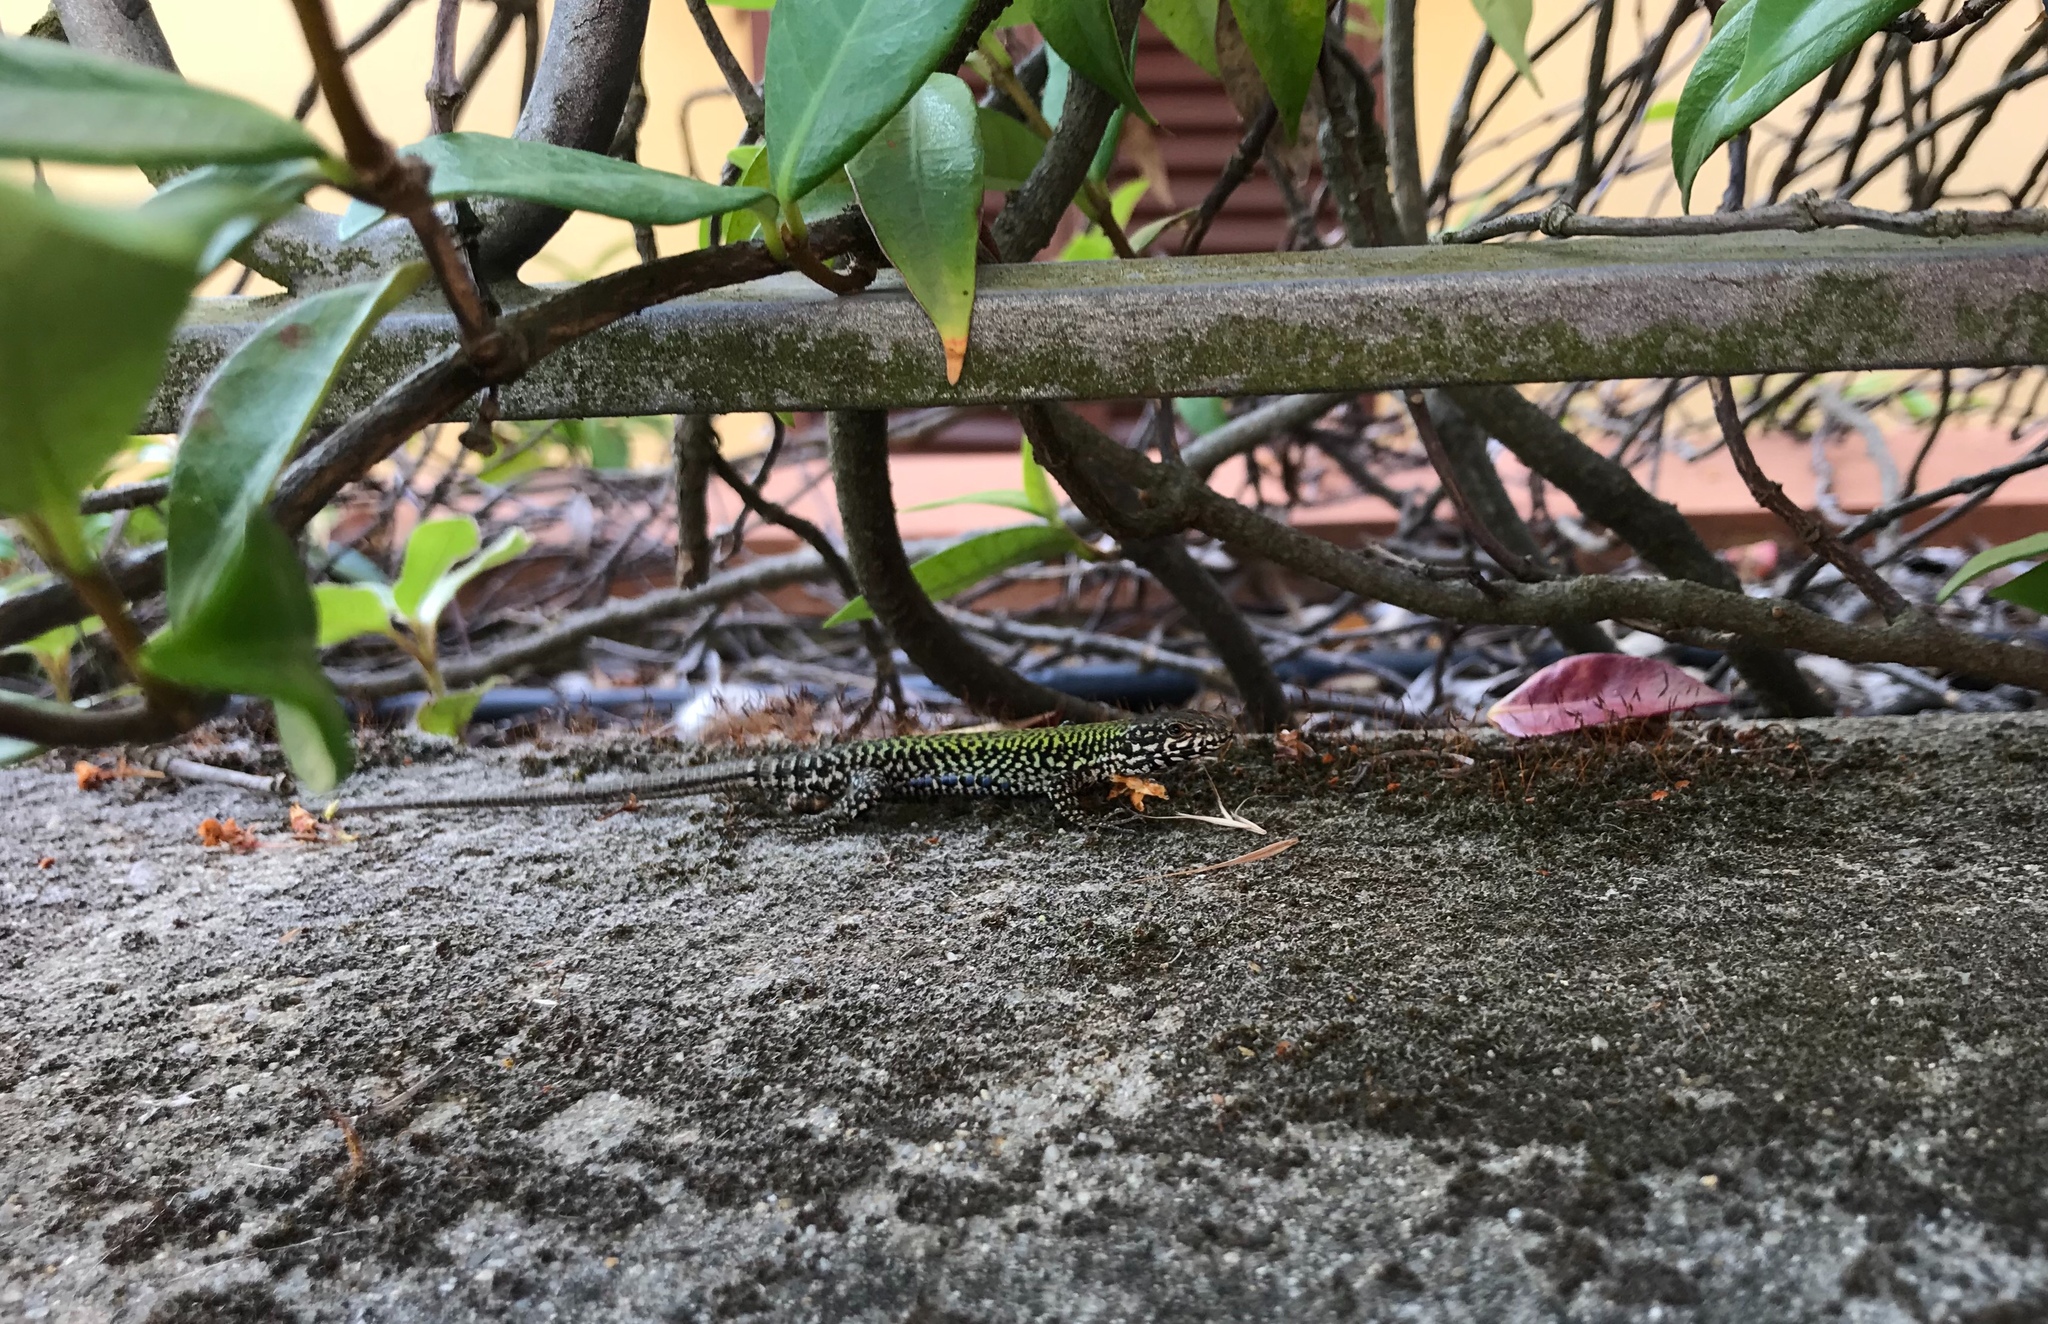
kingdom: Animalia
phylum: Chordata
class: Squamata
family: Lacertidae
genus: Podarcis
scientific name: Podarcis muralis
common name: Common wall lizard
